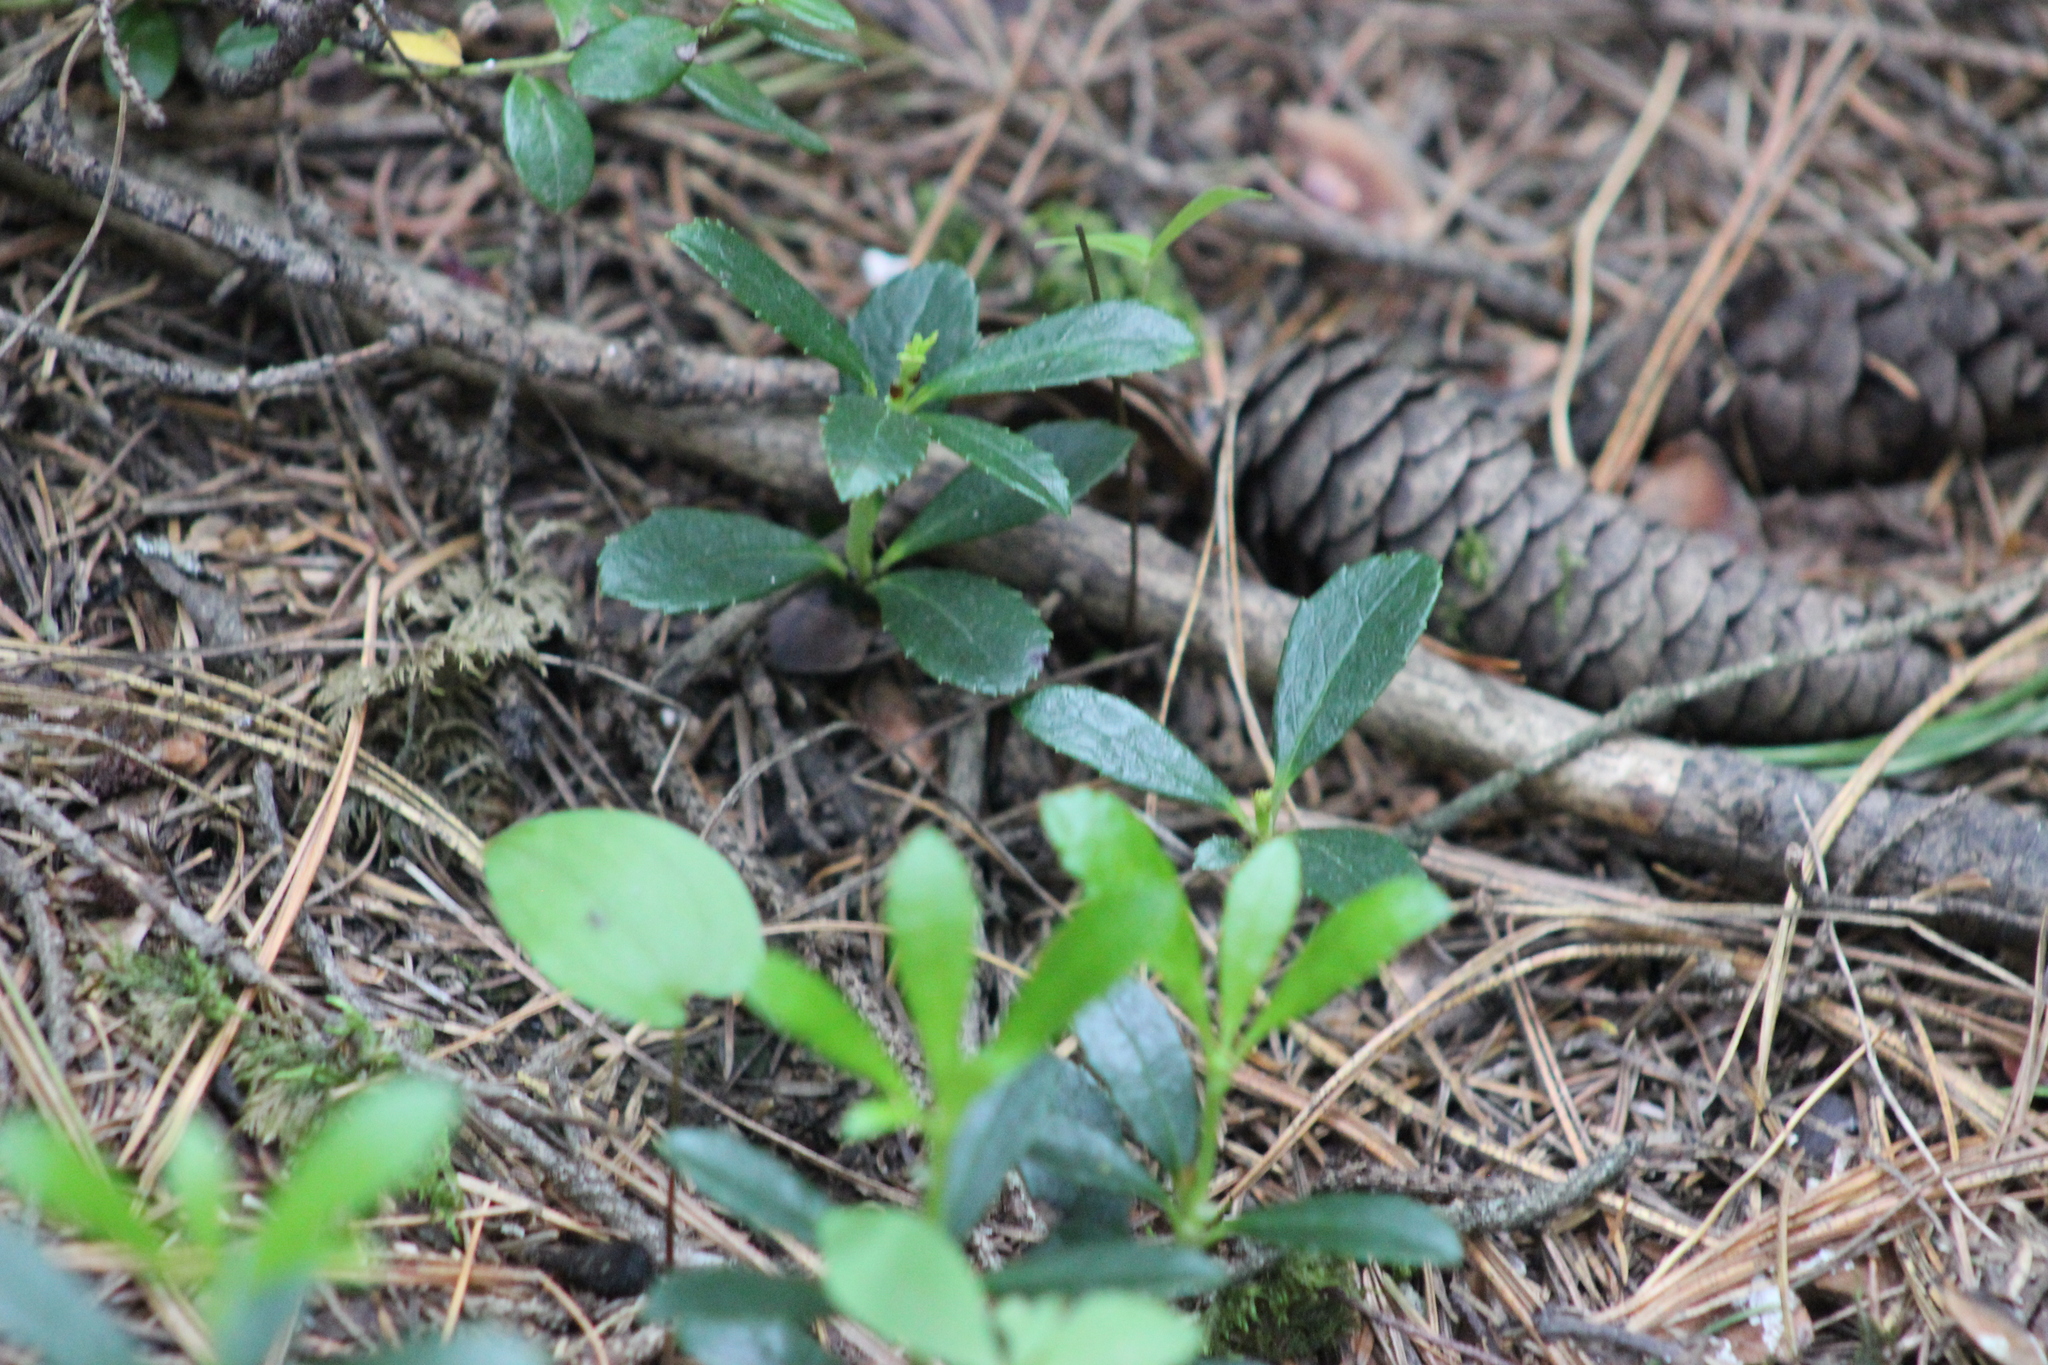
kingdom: Plantae
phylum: Tracheophyta
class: Magnoliopsida
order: Ericales
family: Ericaceae
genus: Chimaphila
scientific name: Chimaphila umbellata
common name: Pipsissewa
